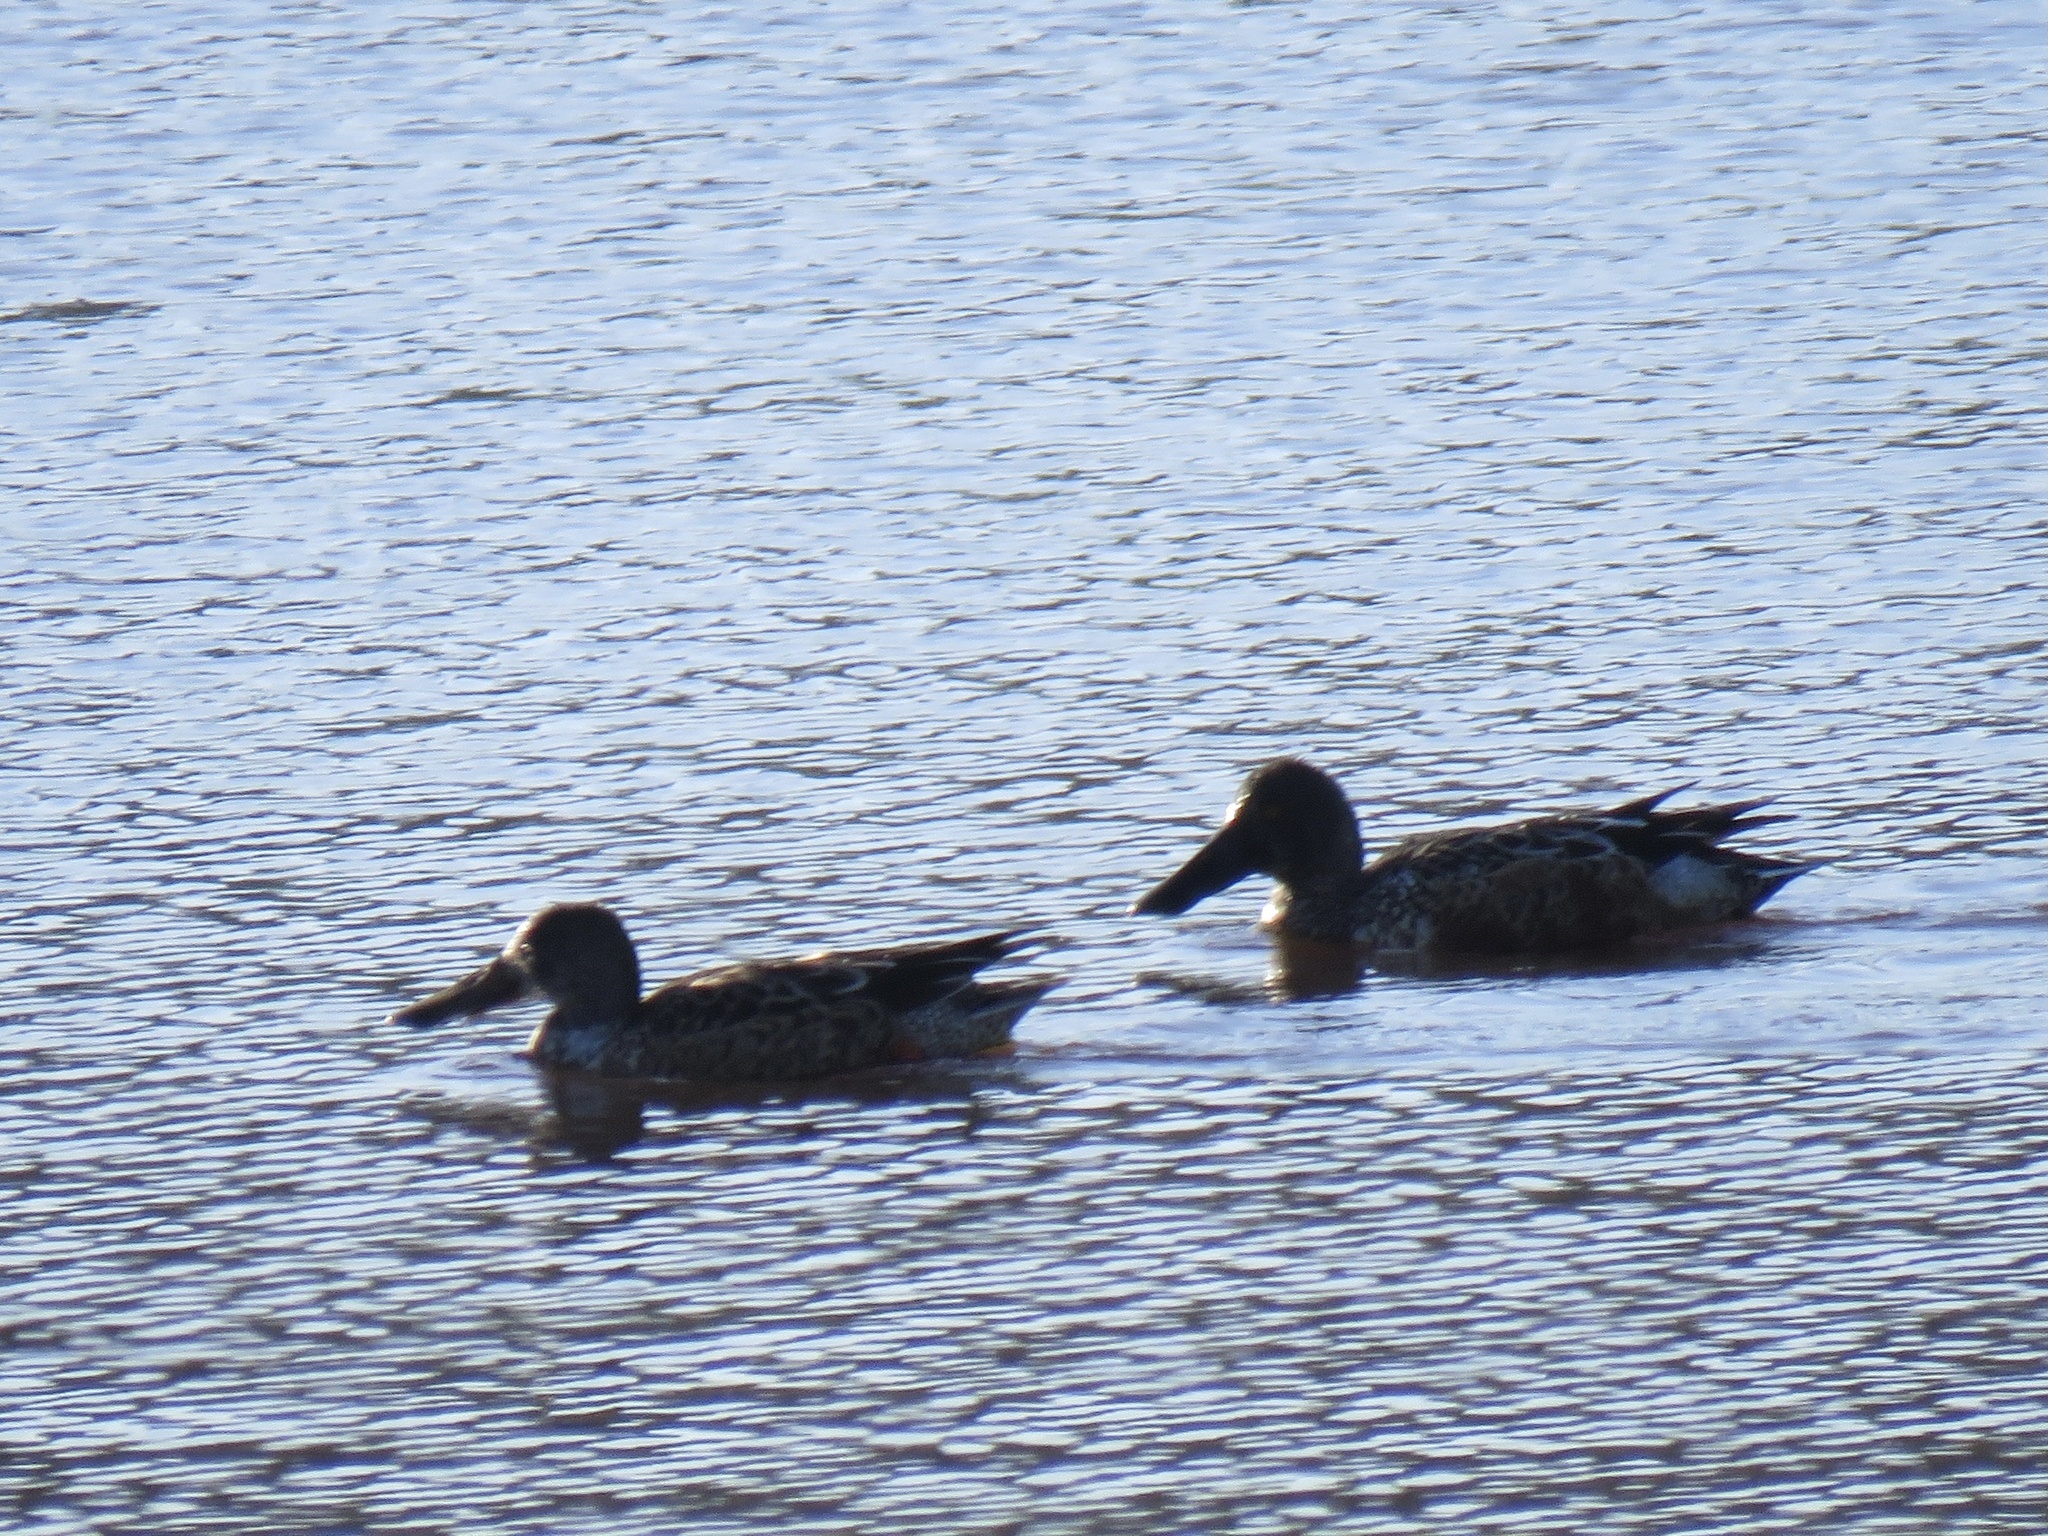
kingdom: Animalia
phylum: Chordata
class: Aves
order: Anseriformes
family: Anatidae
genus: Spatula
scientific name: Spatula clypeata
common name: Northern shoveler
